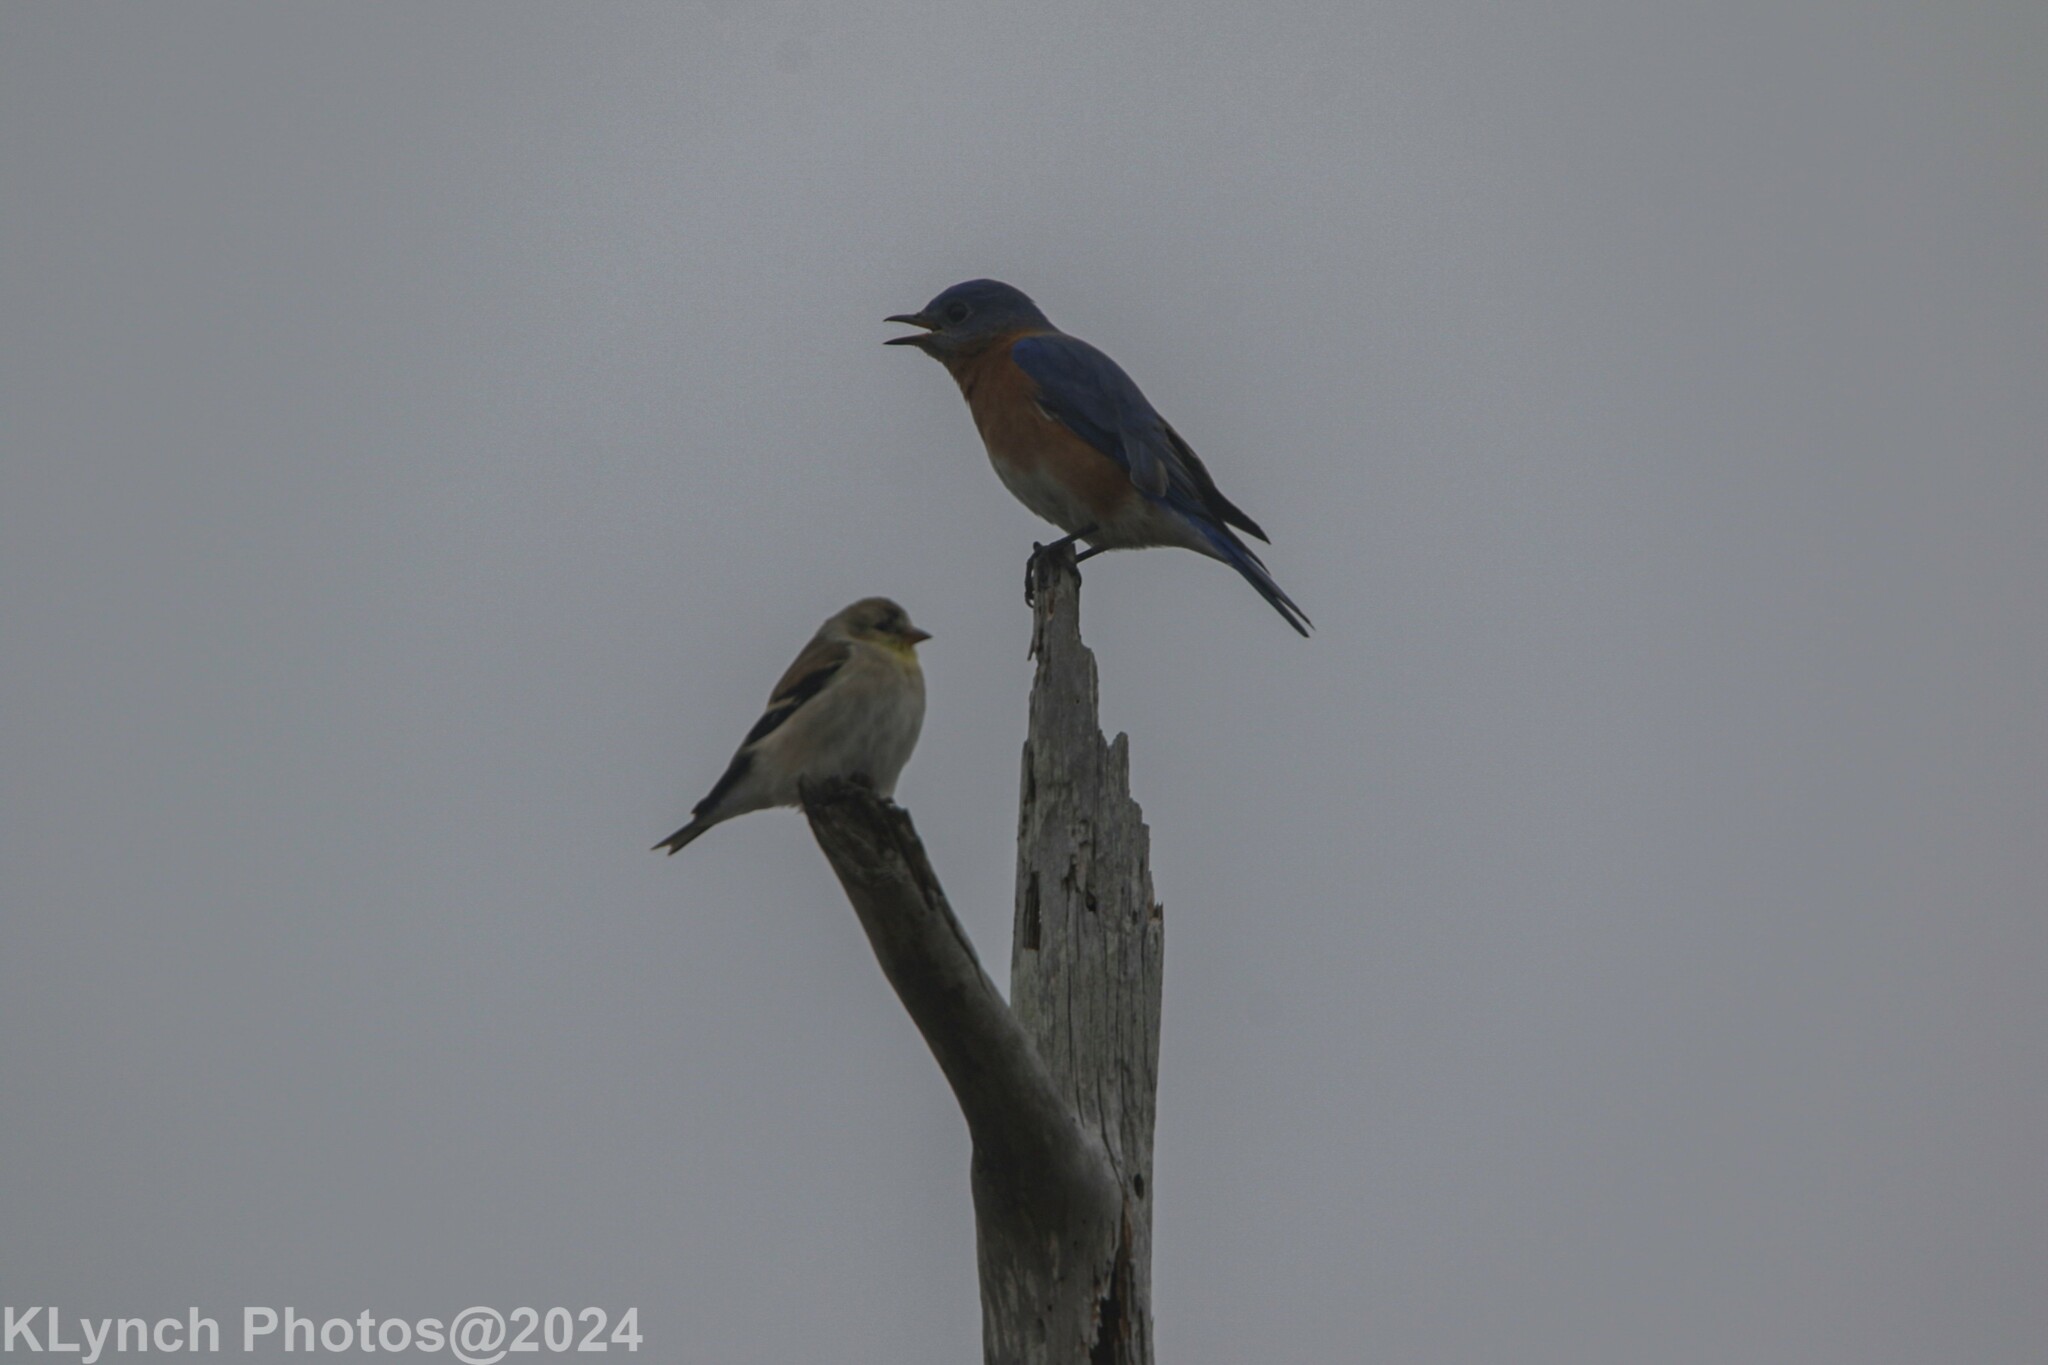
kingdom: Animalia
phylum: Chordata
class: Aves
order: Passeriformes
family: Fringillidae
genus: Spinus
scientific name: Spinus tristis
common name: American goldfinch
